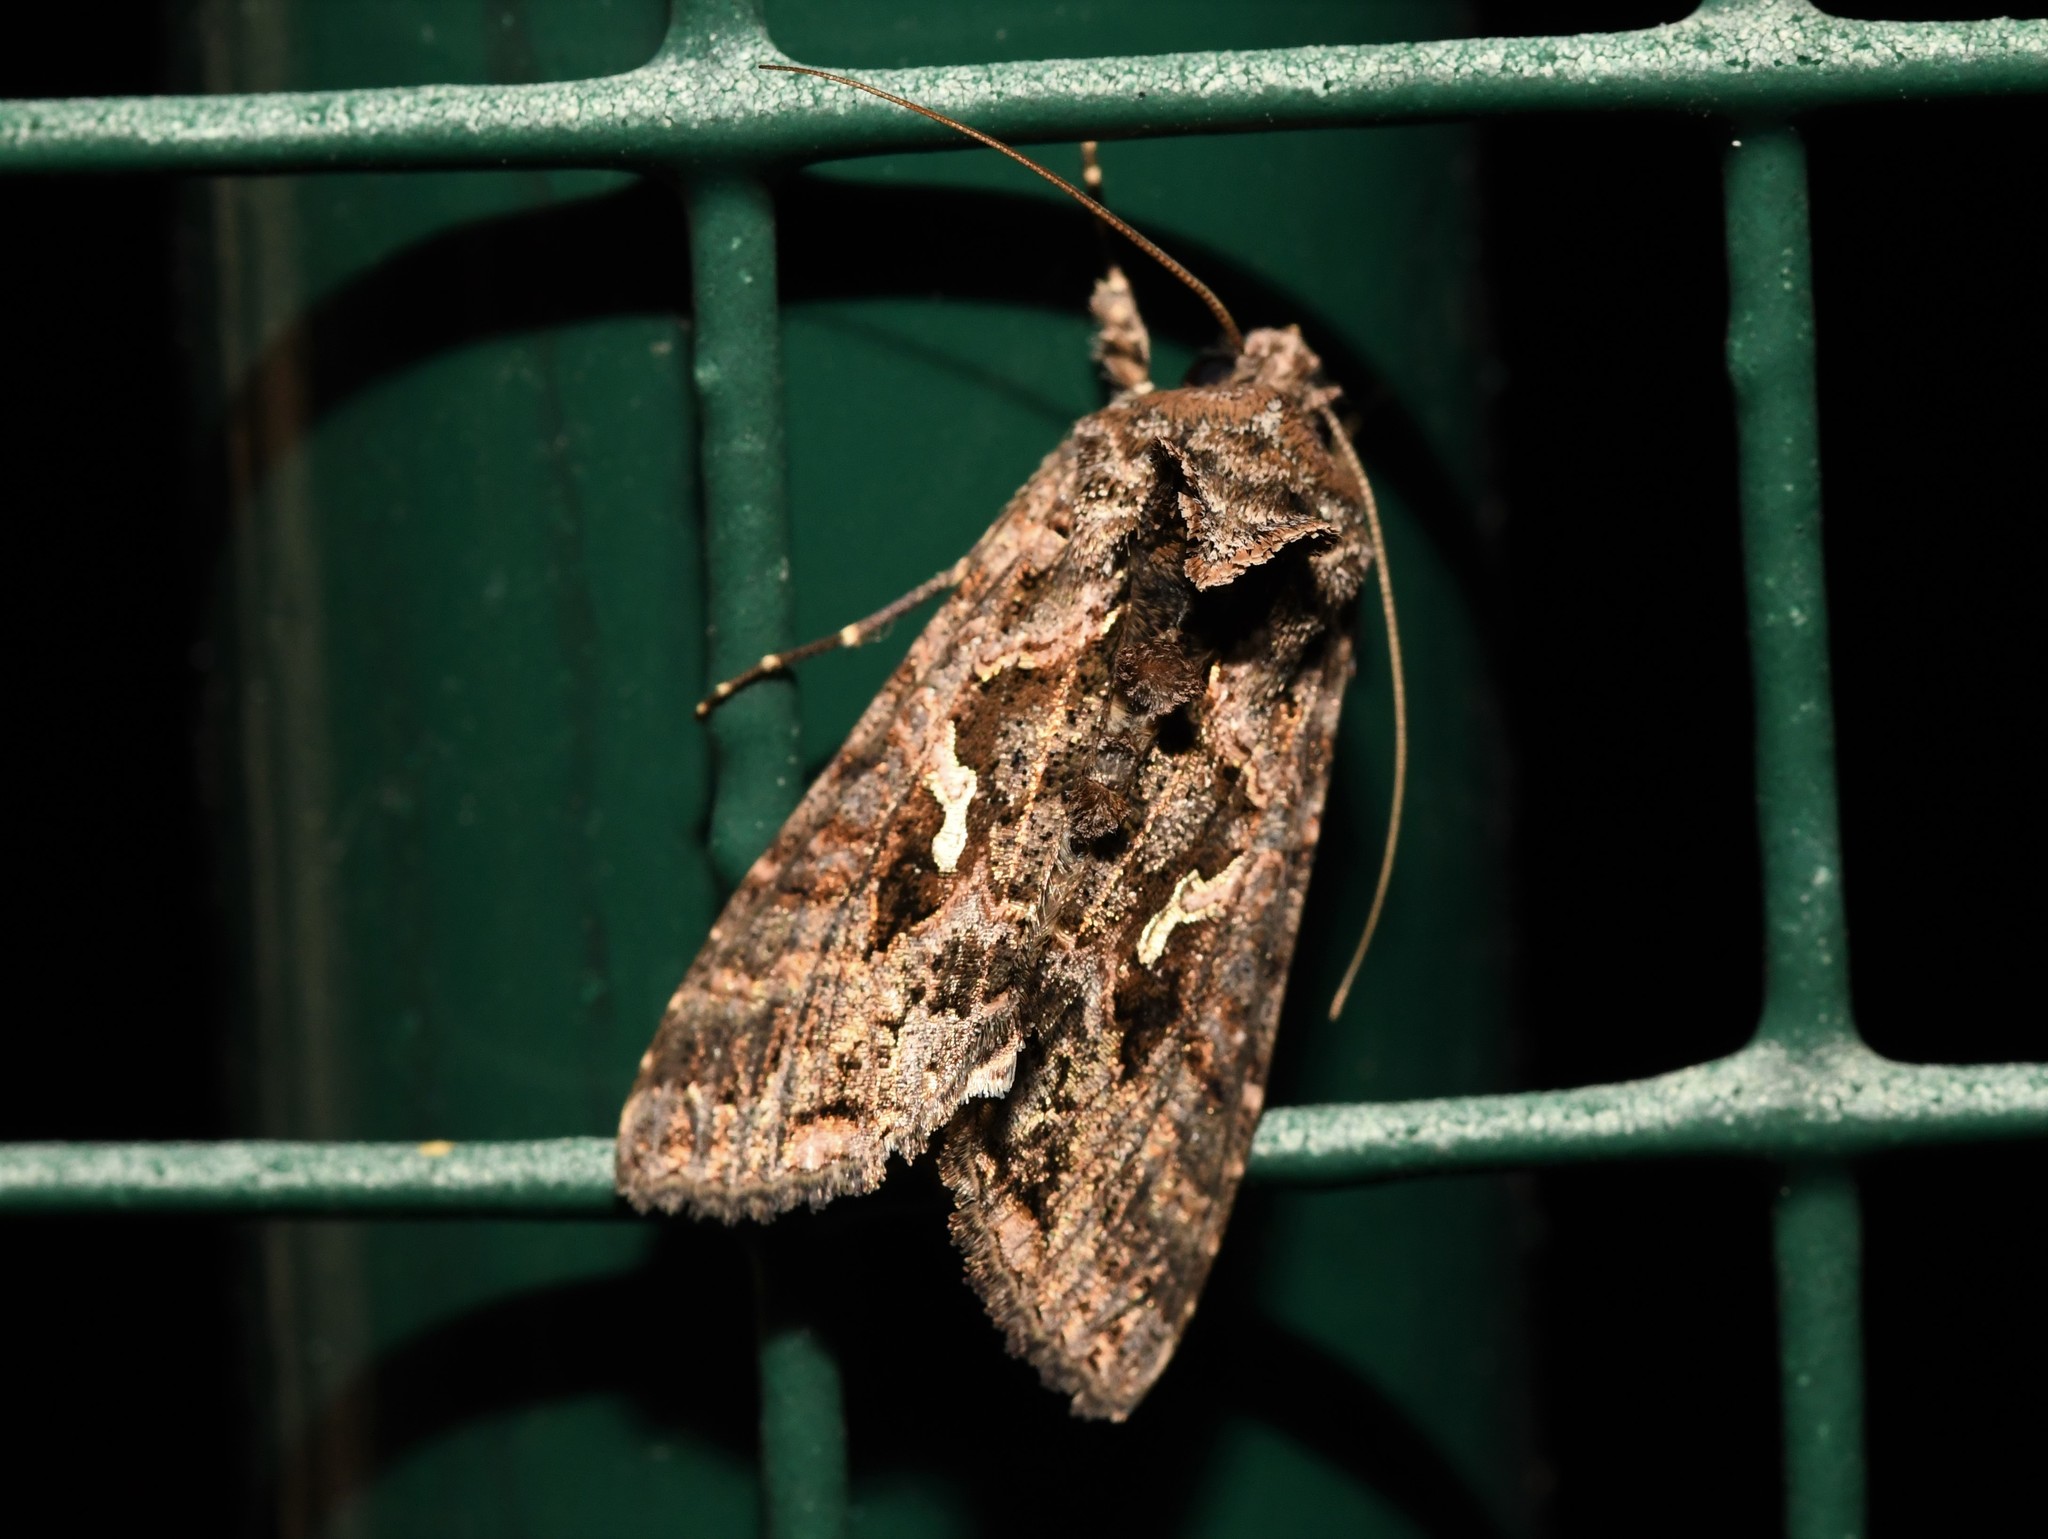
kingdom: Animalia
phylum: Arthropoda
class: Insecta
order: Lepidoptera
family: Noctuidae
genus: Ctenoplusia
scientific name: Ctenoplusia limbirena
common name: Scar bank gem
